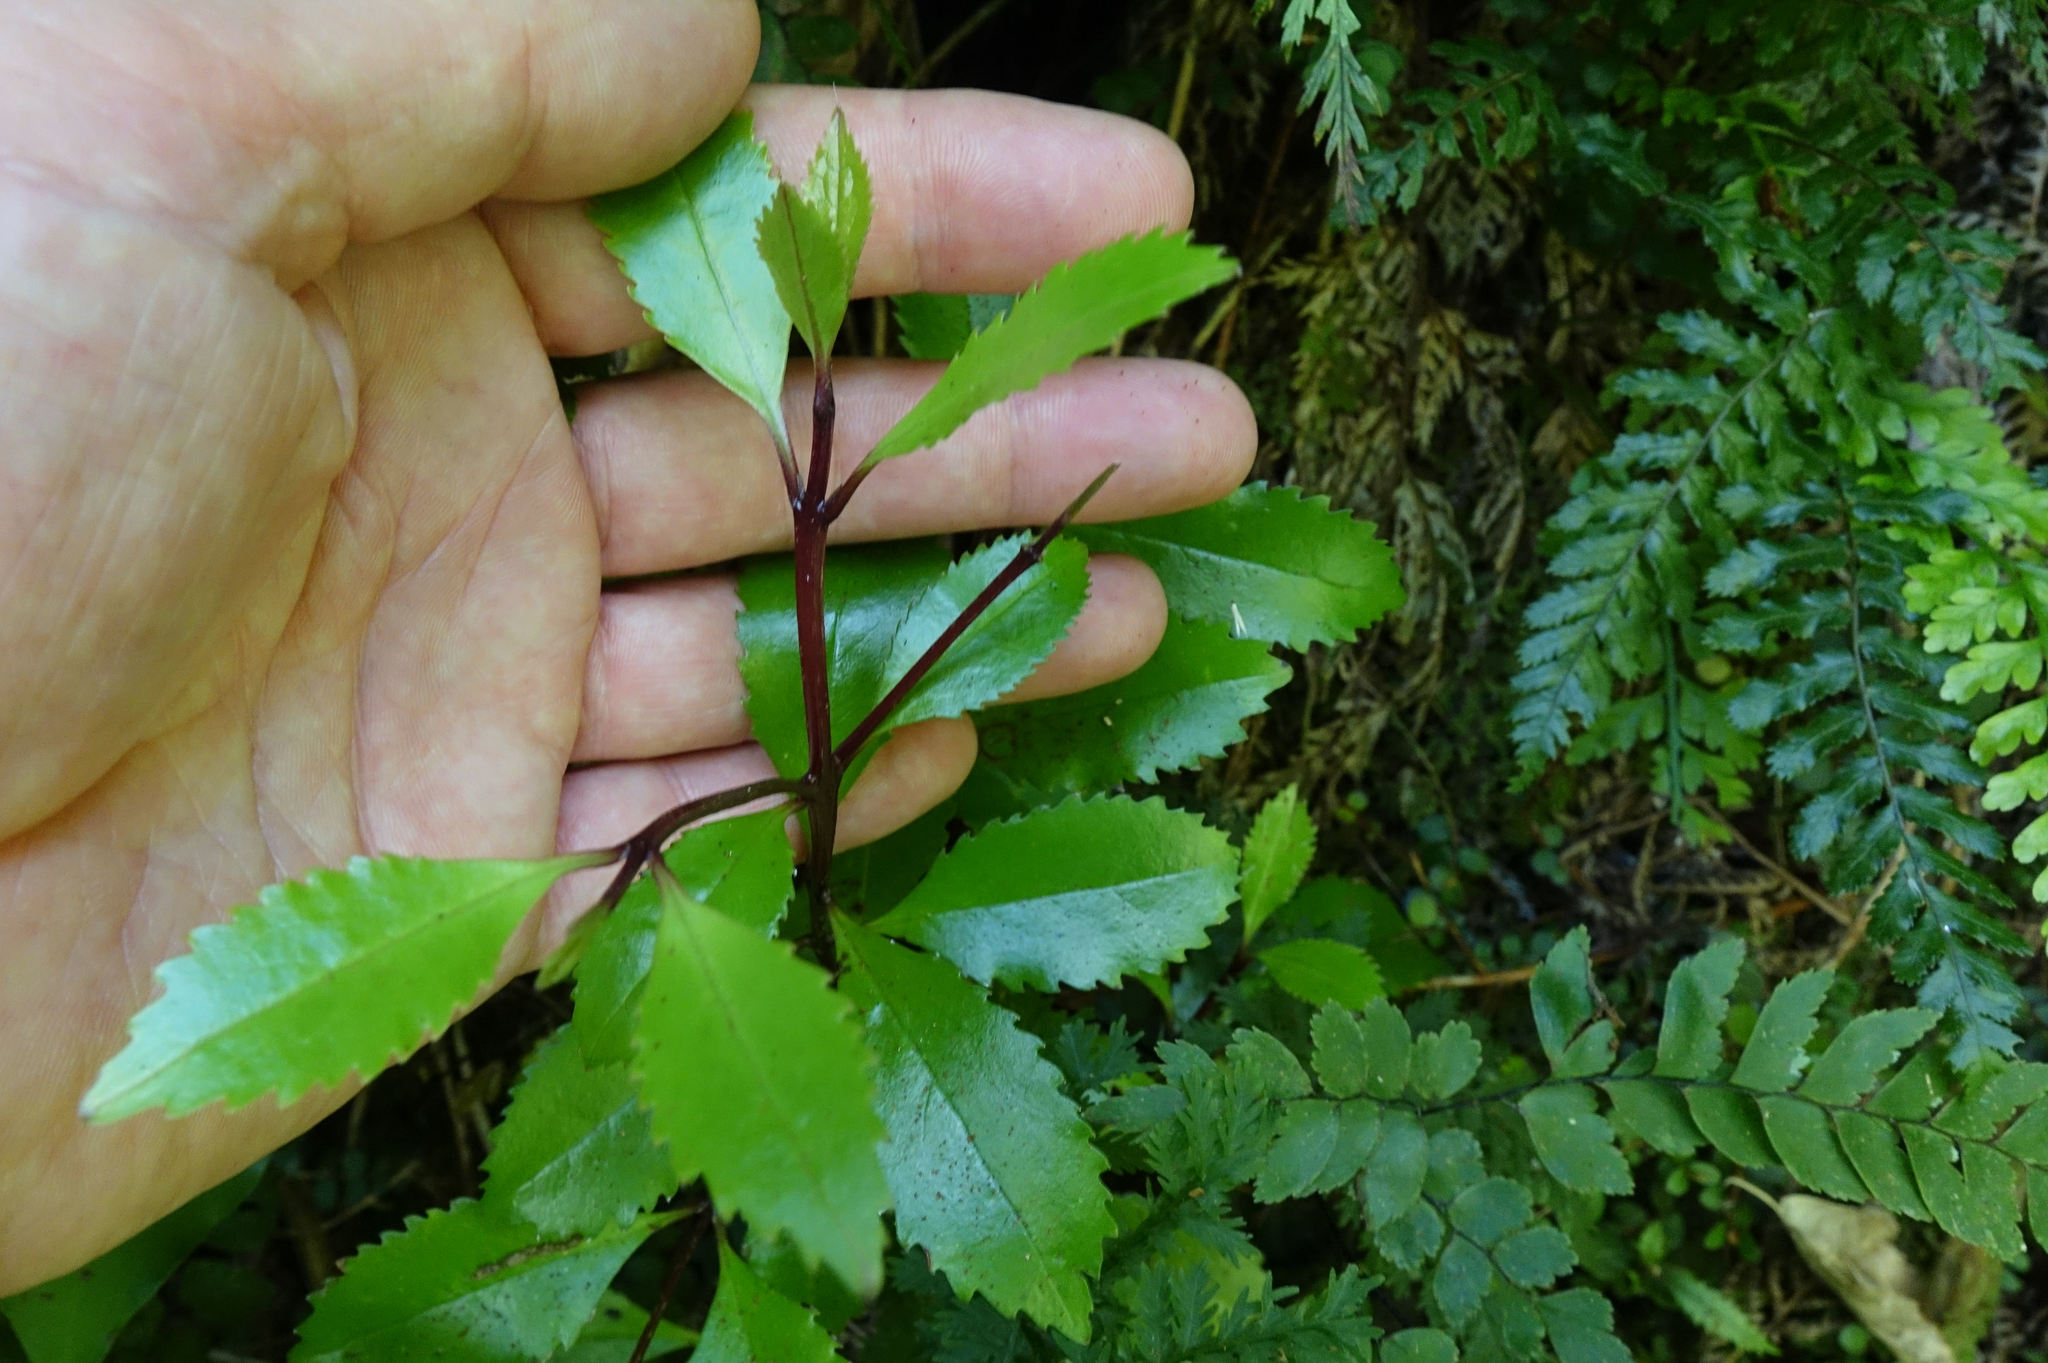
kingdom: Plantae
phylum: Tracheophyta
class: Magnoliopsida
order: Laurales
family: Atherospermataceae
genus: Laurelia
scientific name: Laurelia novae-zelandiae
